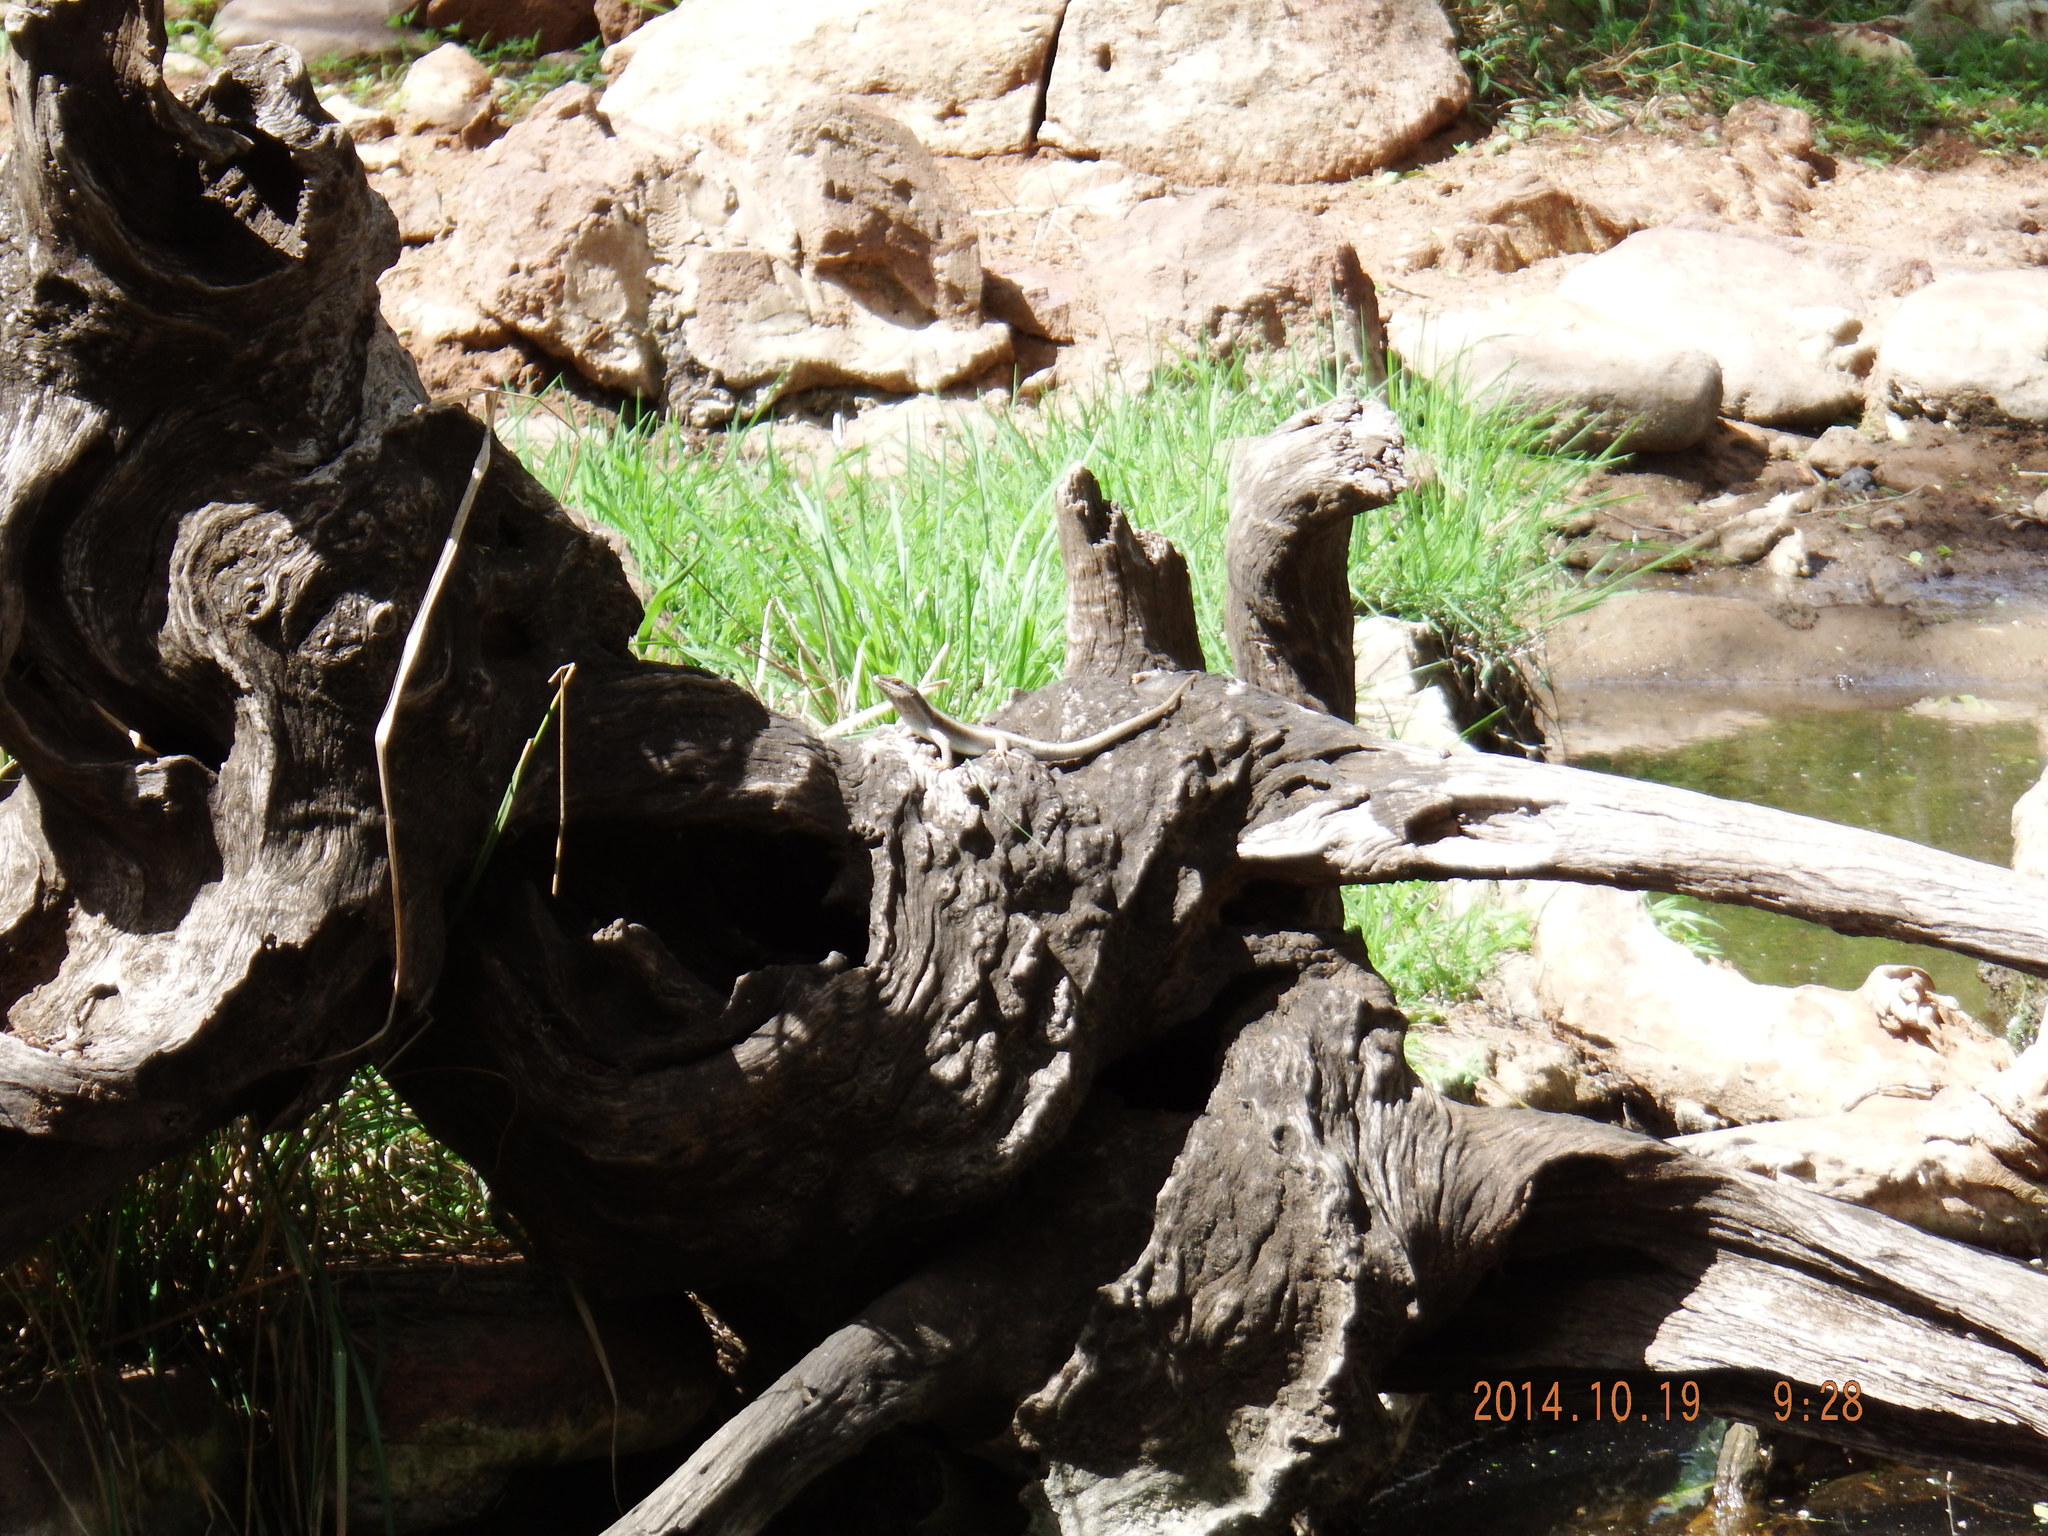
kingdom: Animalia
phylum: Chordata
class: Squamata
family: Scincidae
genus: Trachylepis
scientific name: Trachylepis striata
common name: African striped mabuya
